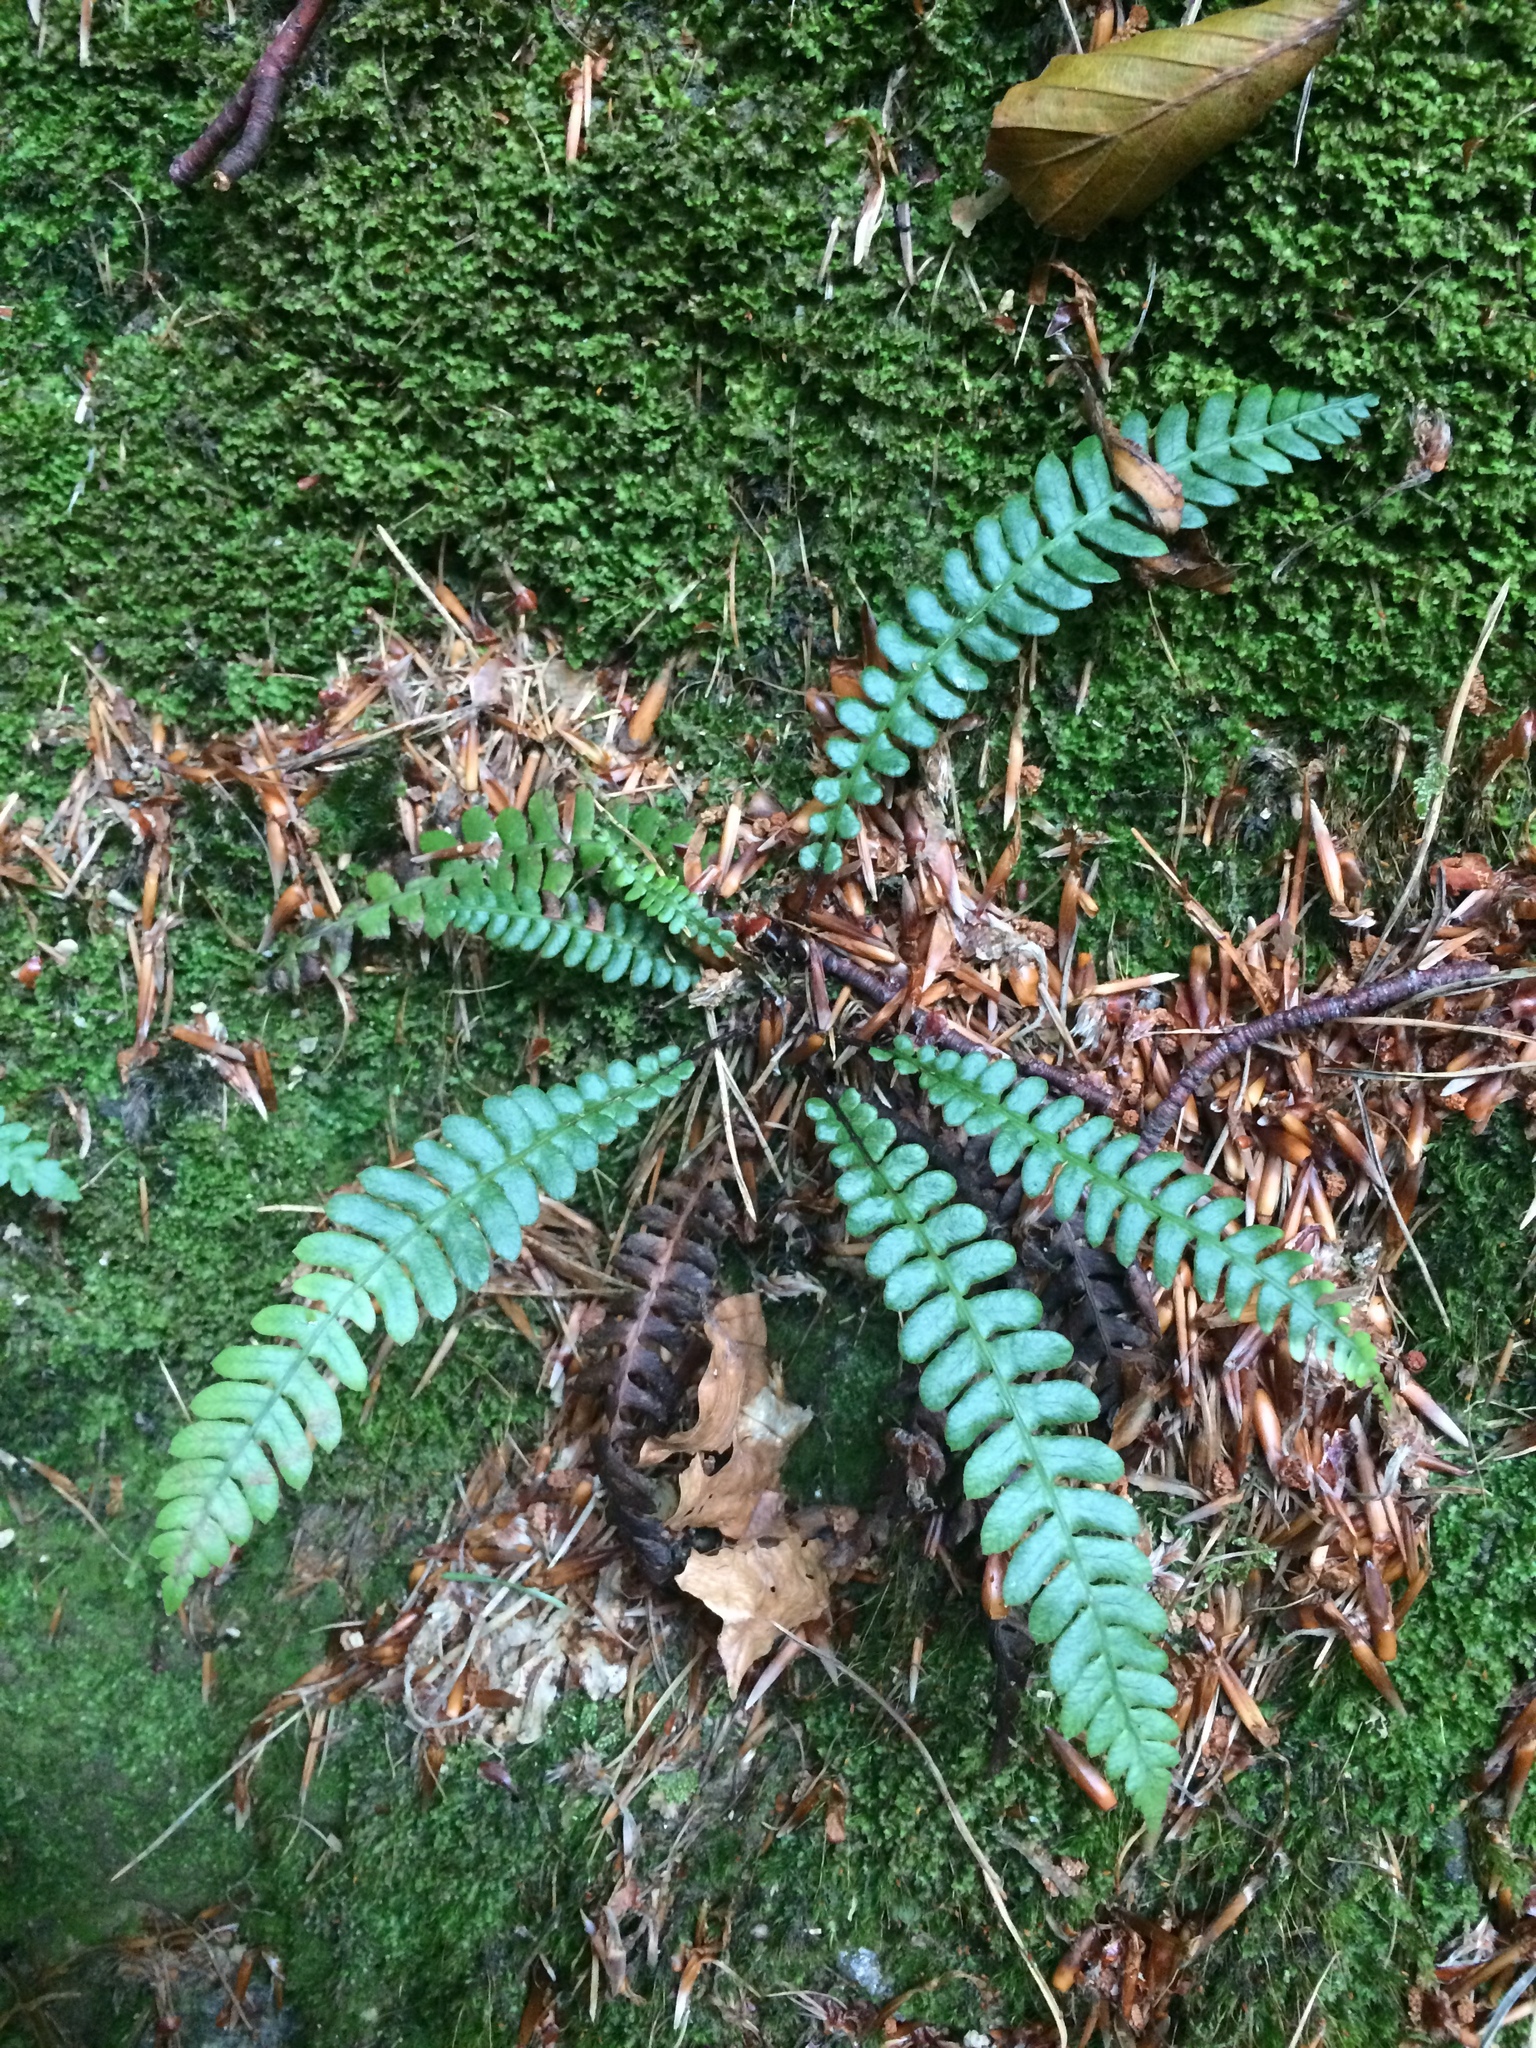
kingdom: Plantae
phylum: Tracheophyta
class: Polypodiopsida
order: Polypodiales
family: Blechnaceae
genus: Struthiopteris
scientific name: Struthiopteris spicant
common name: Deer fern
